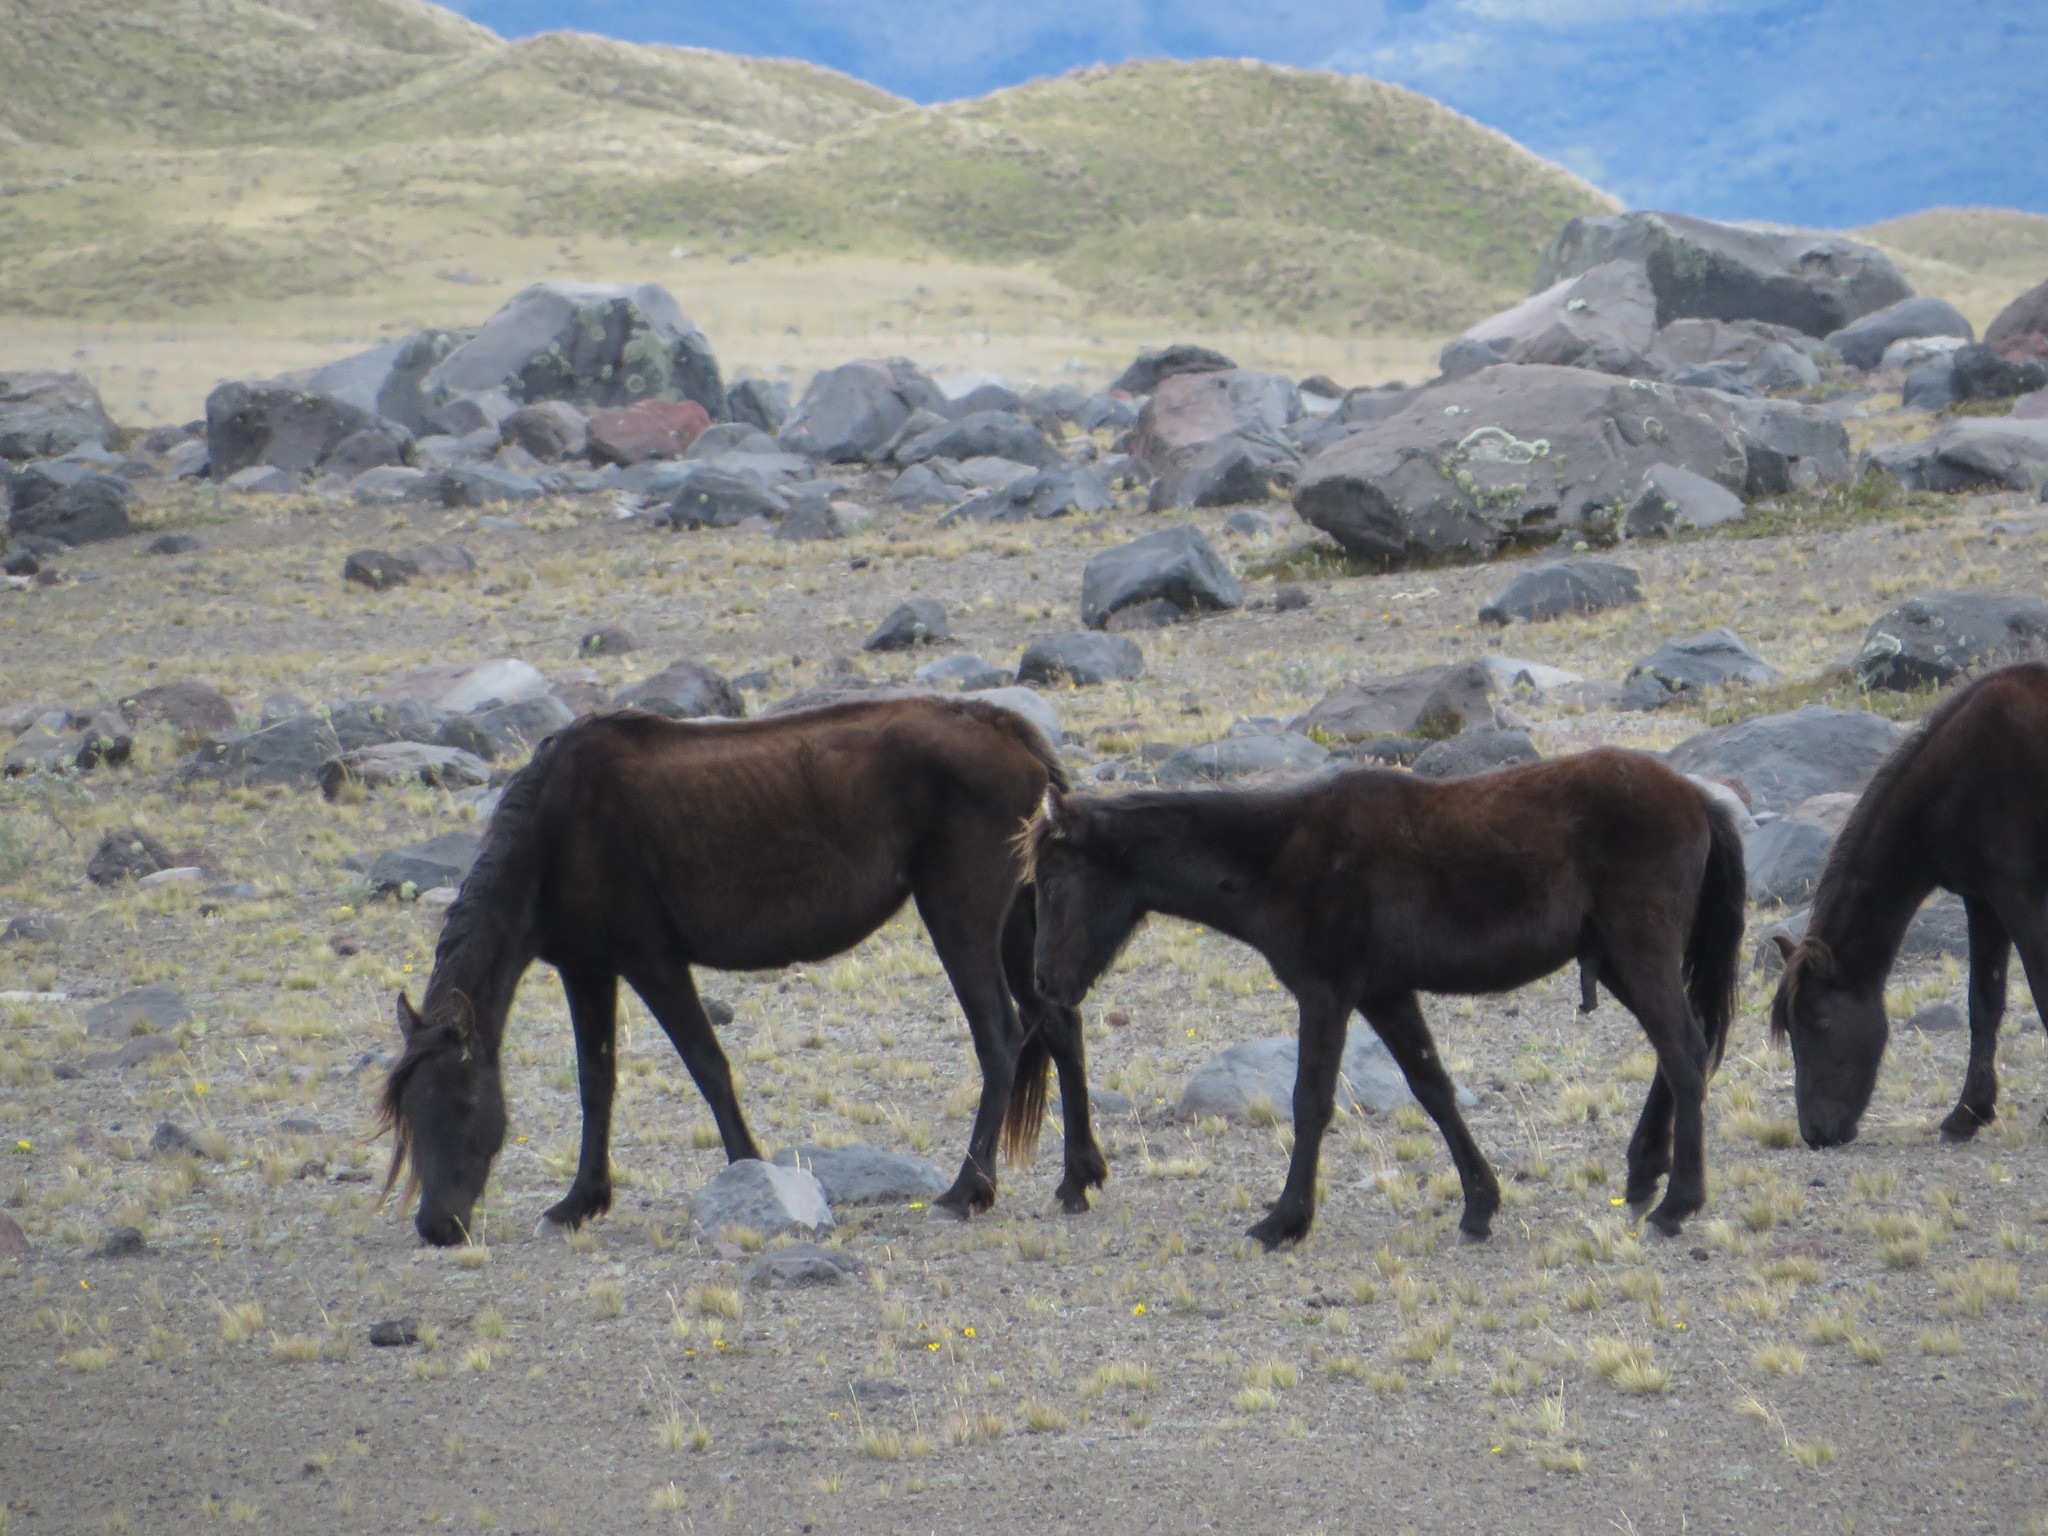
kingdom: Animalia
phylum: Chordata
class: Mammalia
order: Perissodactyla
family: Equidae
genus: Equus
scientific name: Equus caballus
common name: Horse
